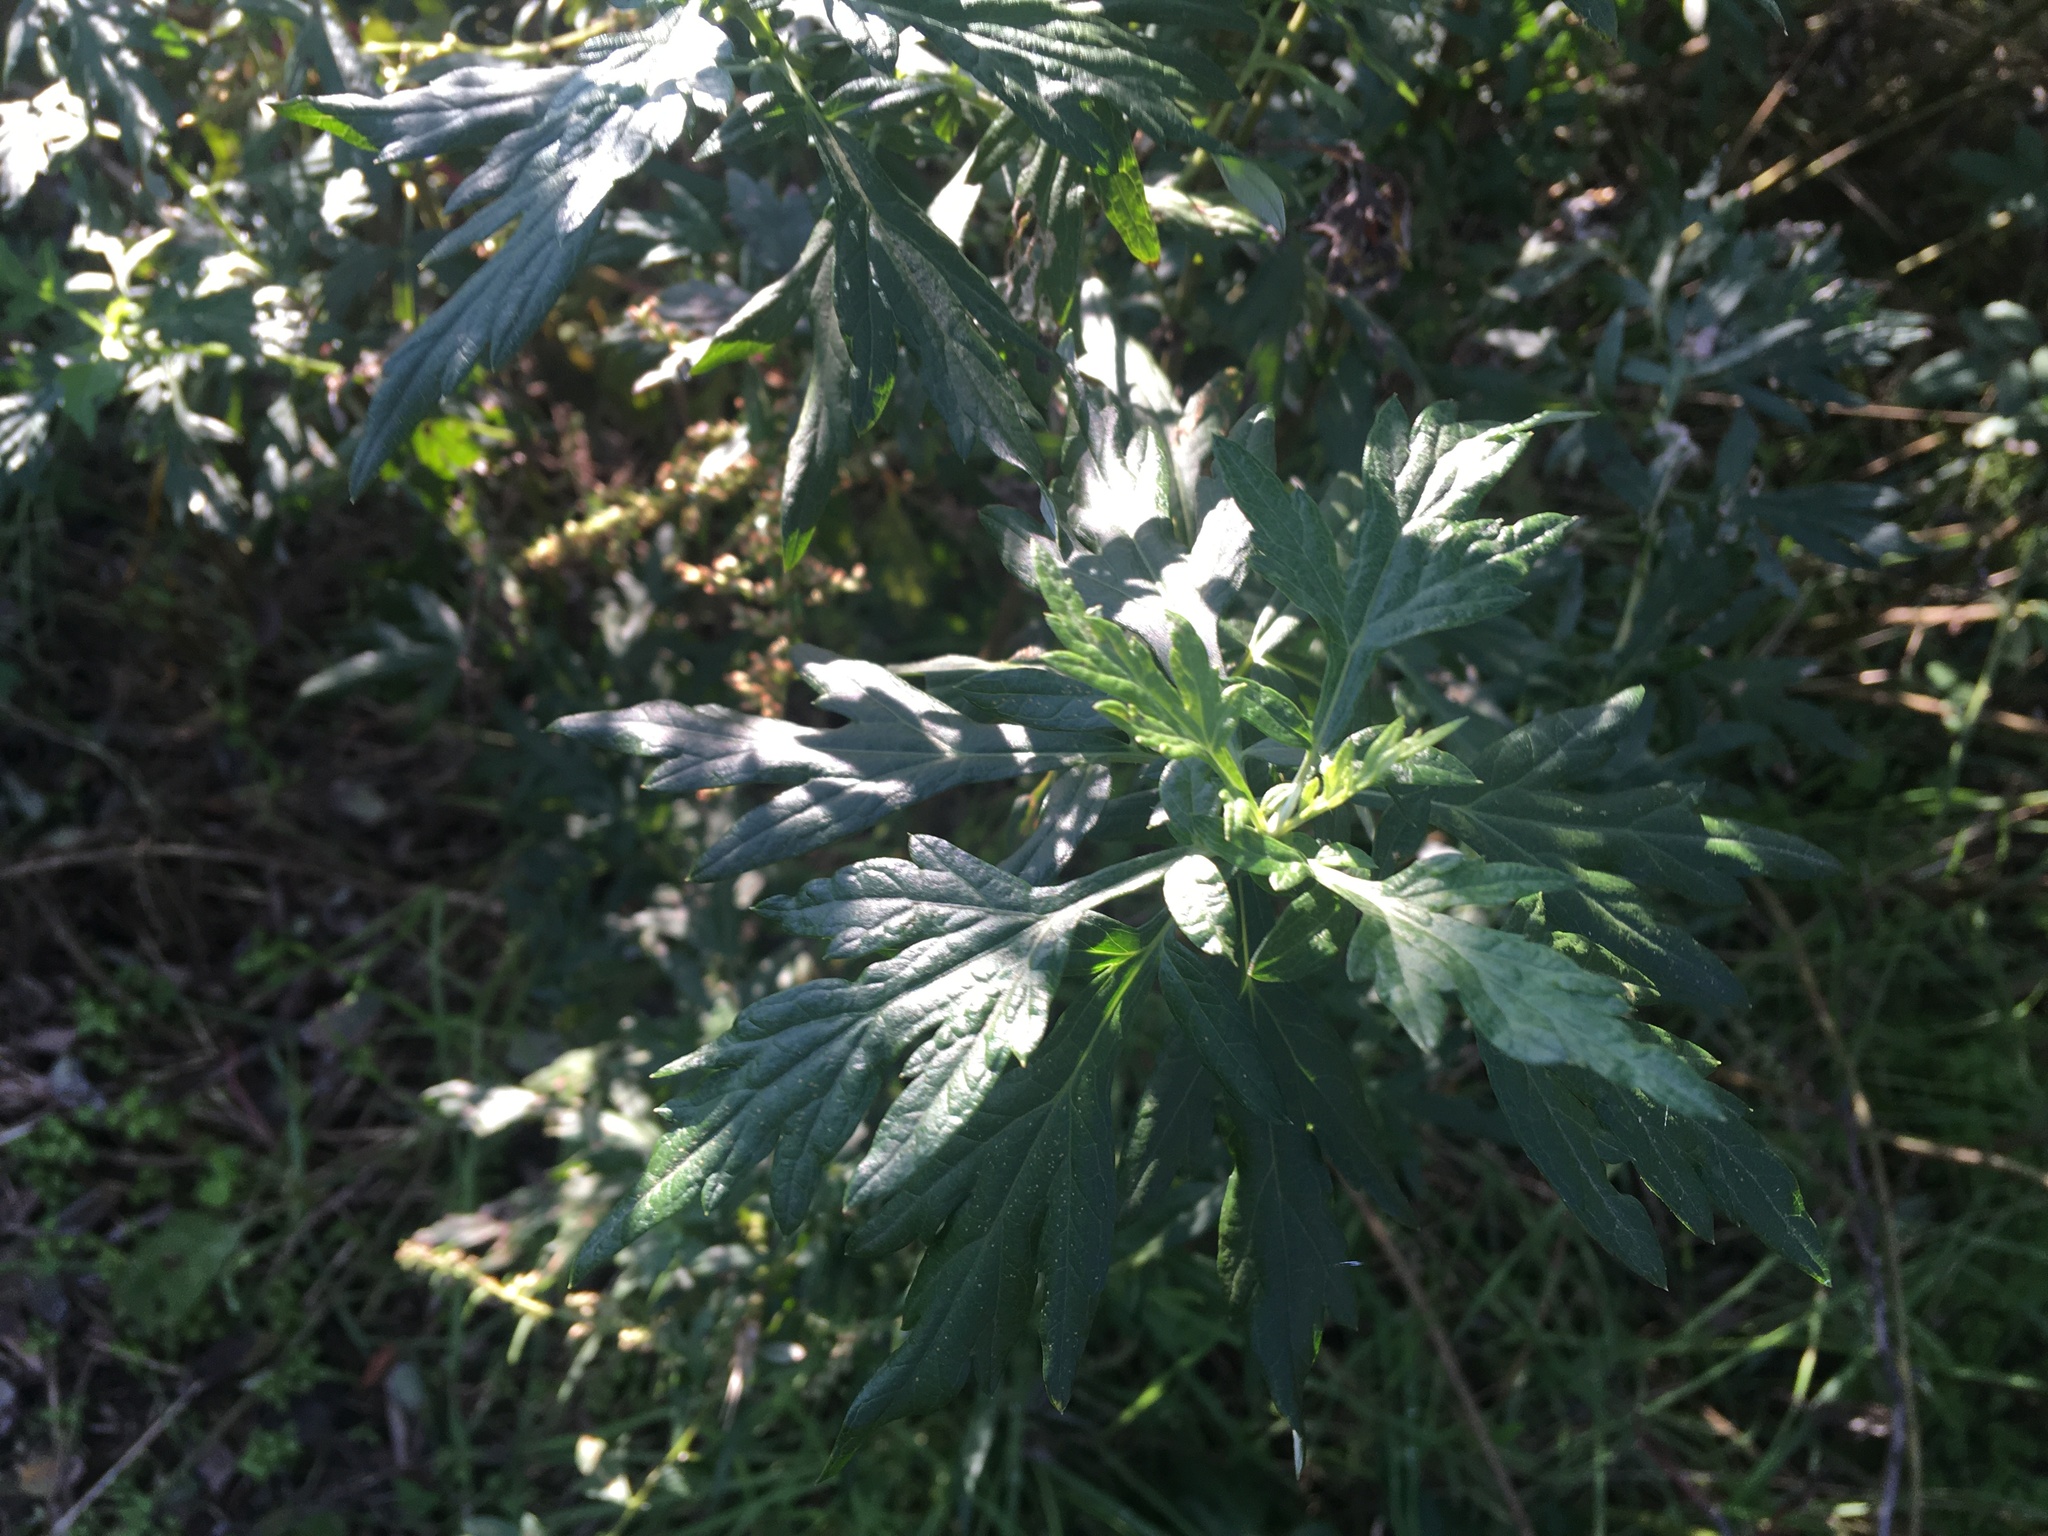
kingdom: Plantae
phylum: Tracheophyta
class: Magnoliopsida
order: Asterales
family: Asteraceae
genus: Artemisia
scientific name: Artemisia vulgaris
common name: Mugwort
